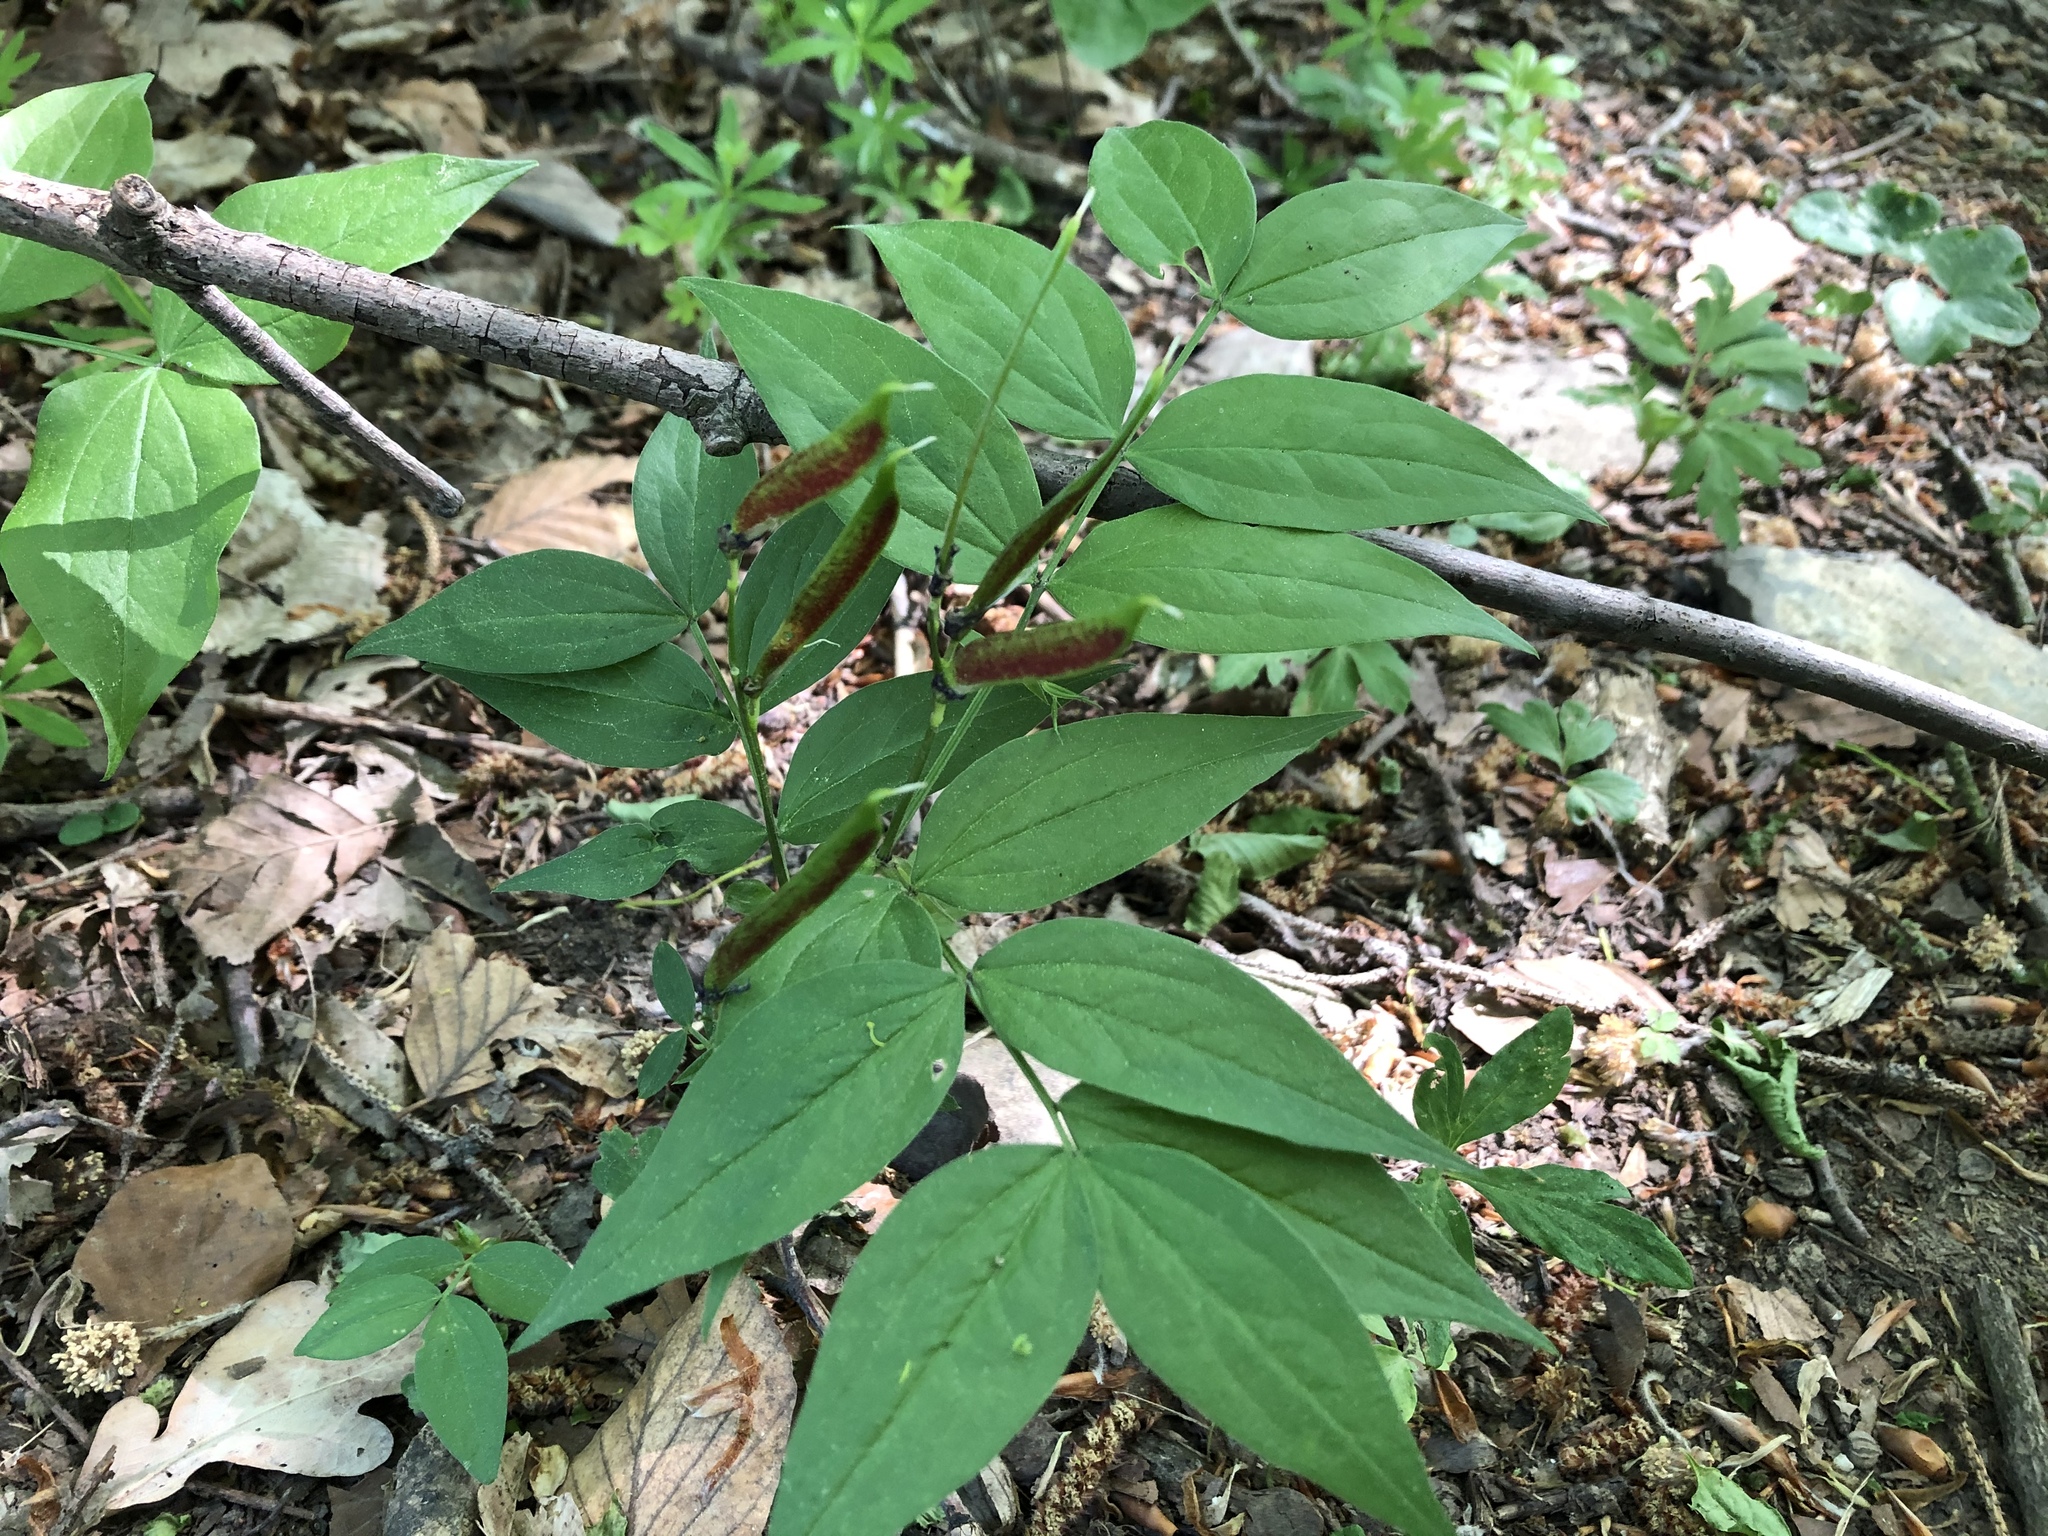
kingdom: Plantae
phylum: Tracheophyta
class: Magnoliopsida
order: Fabales
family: Fabaceae
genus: Lathyrus
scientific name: Lathyrus vernus
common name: Spring pea
